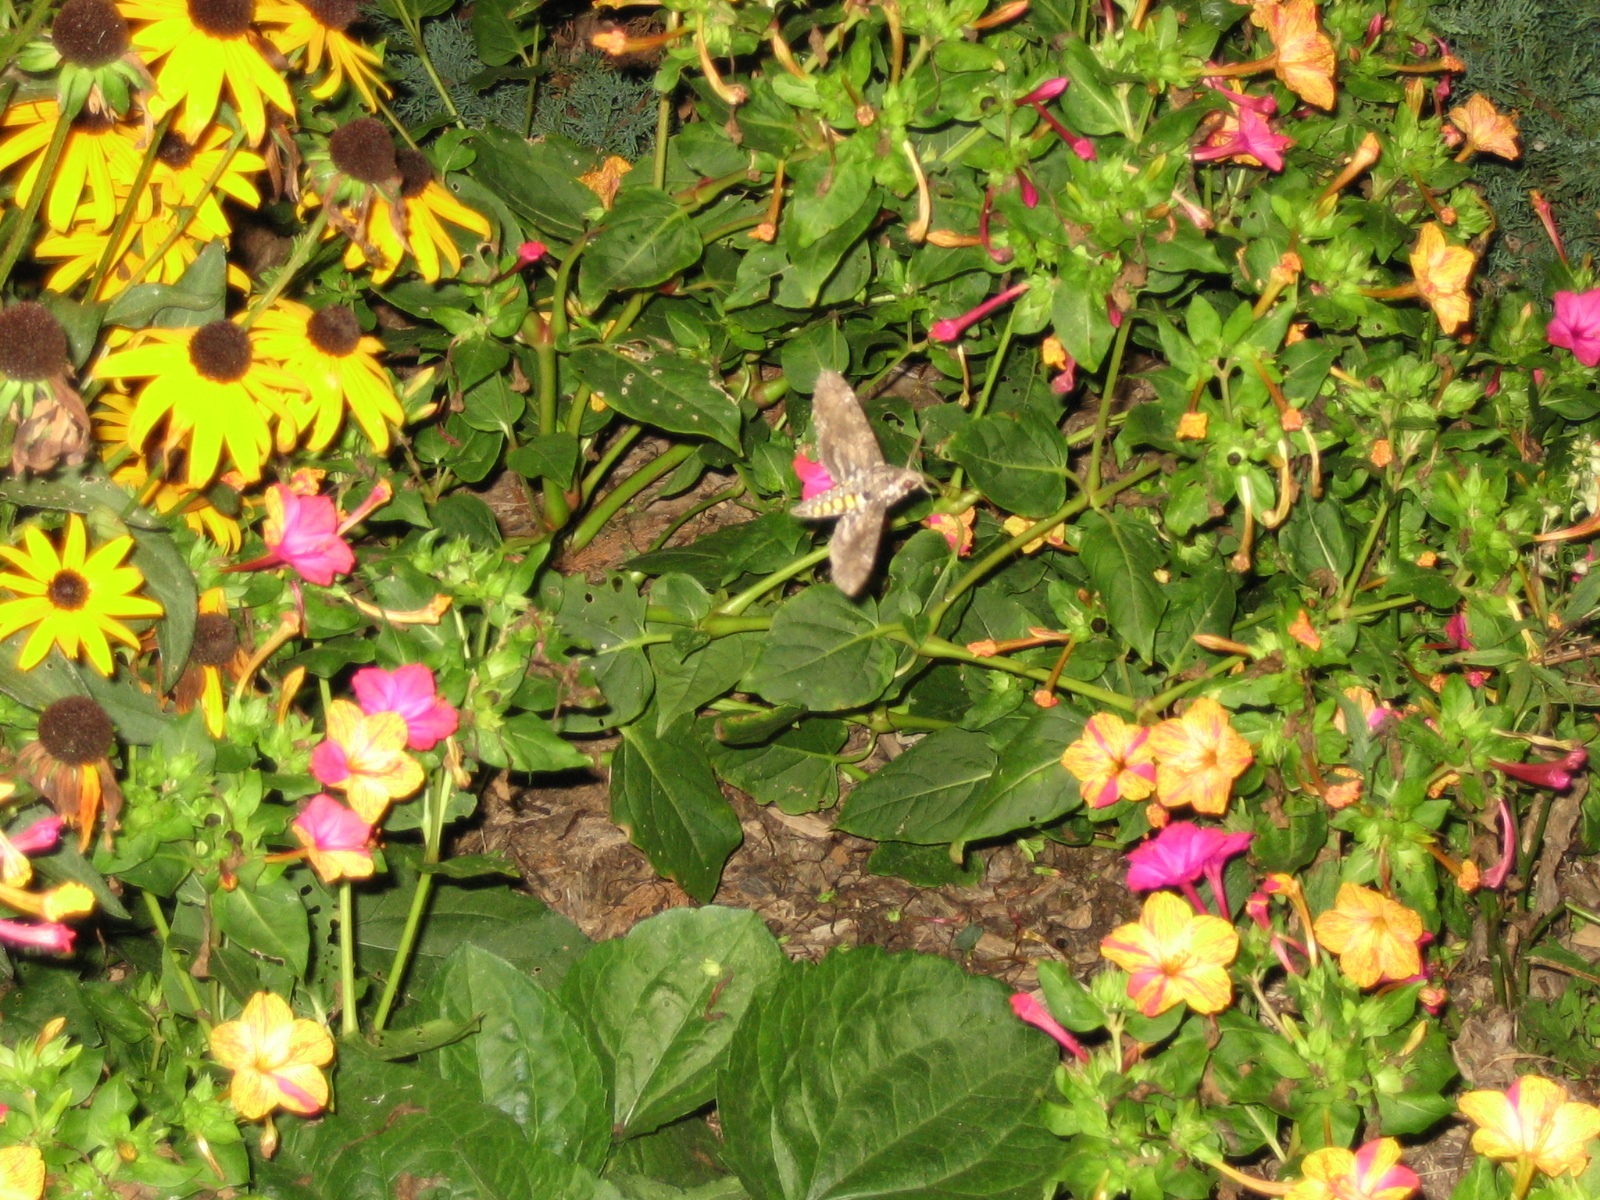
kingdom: Animalia
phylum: Arthropoda
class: Insecta
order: Lepidoptera
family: Sphingidae
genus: Manduca
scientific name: Manduca sexta
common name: Carolina sphinx
